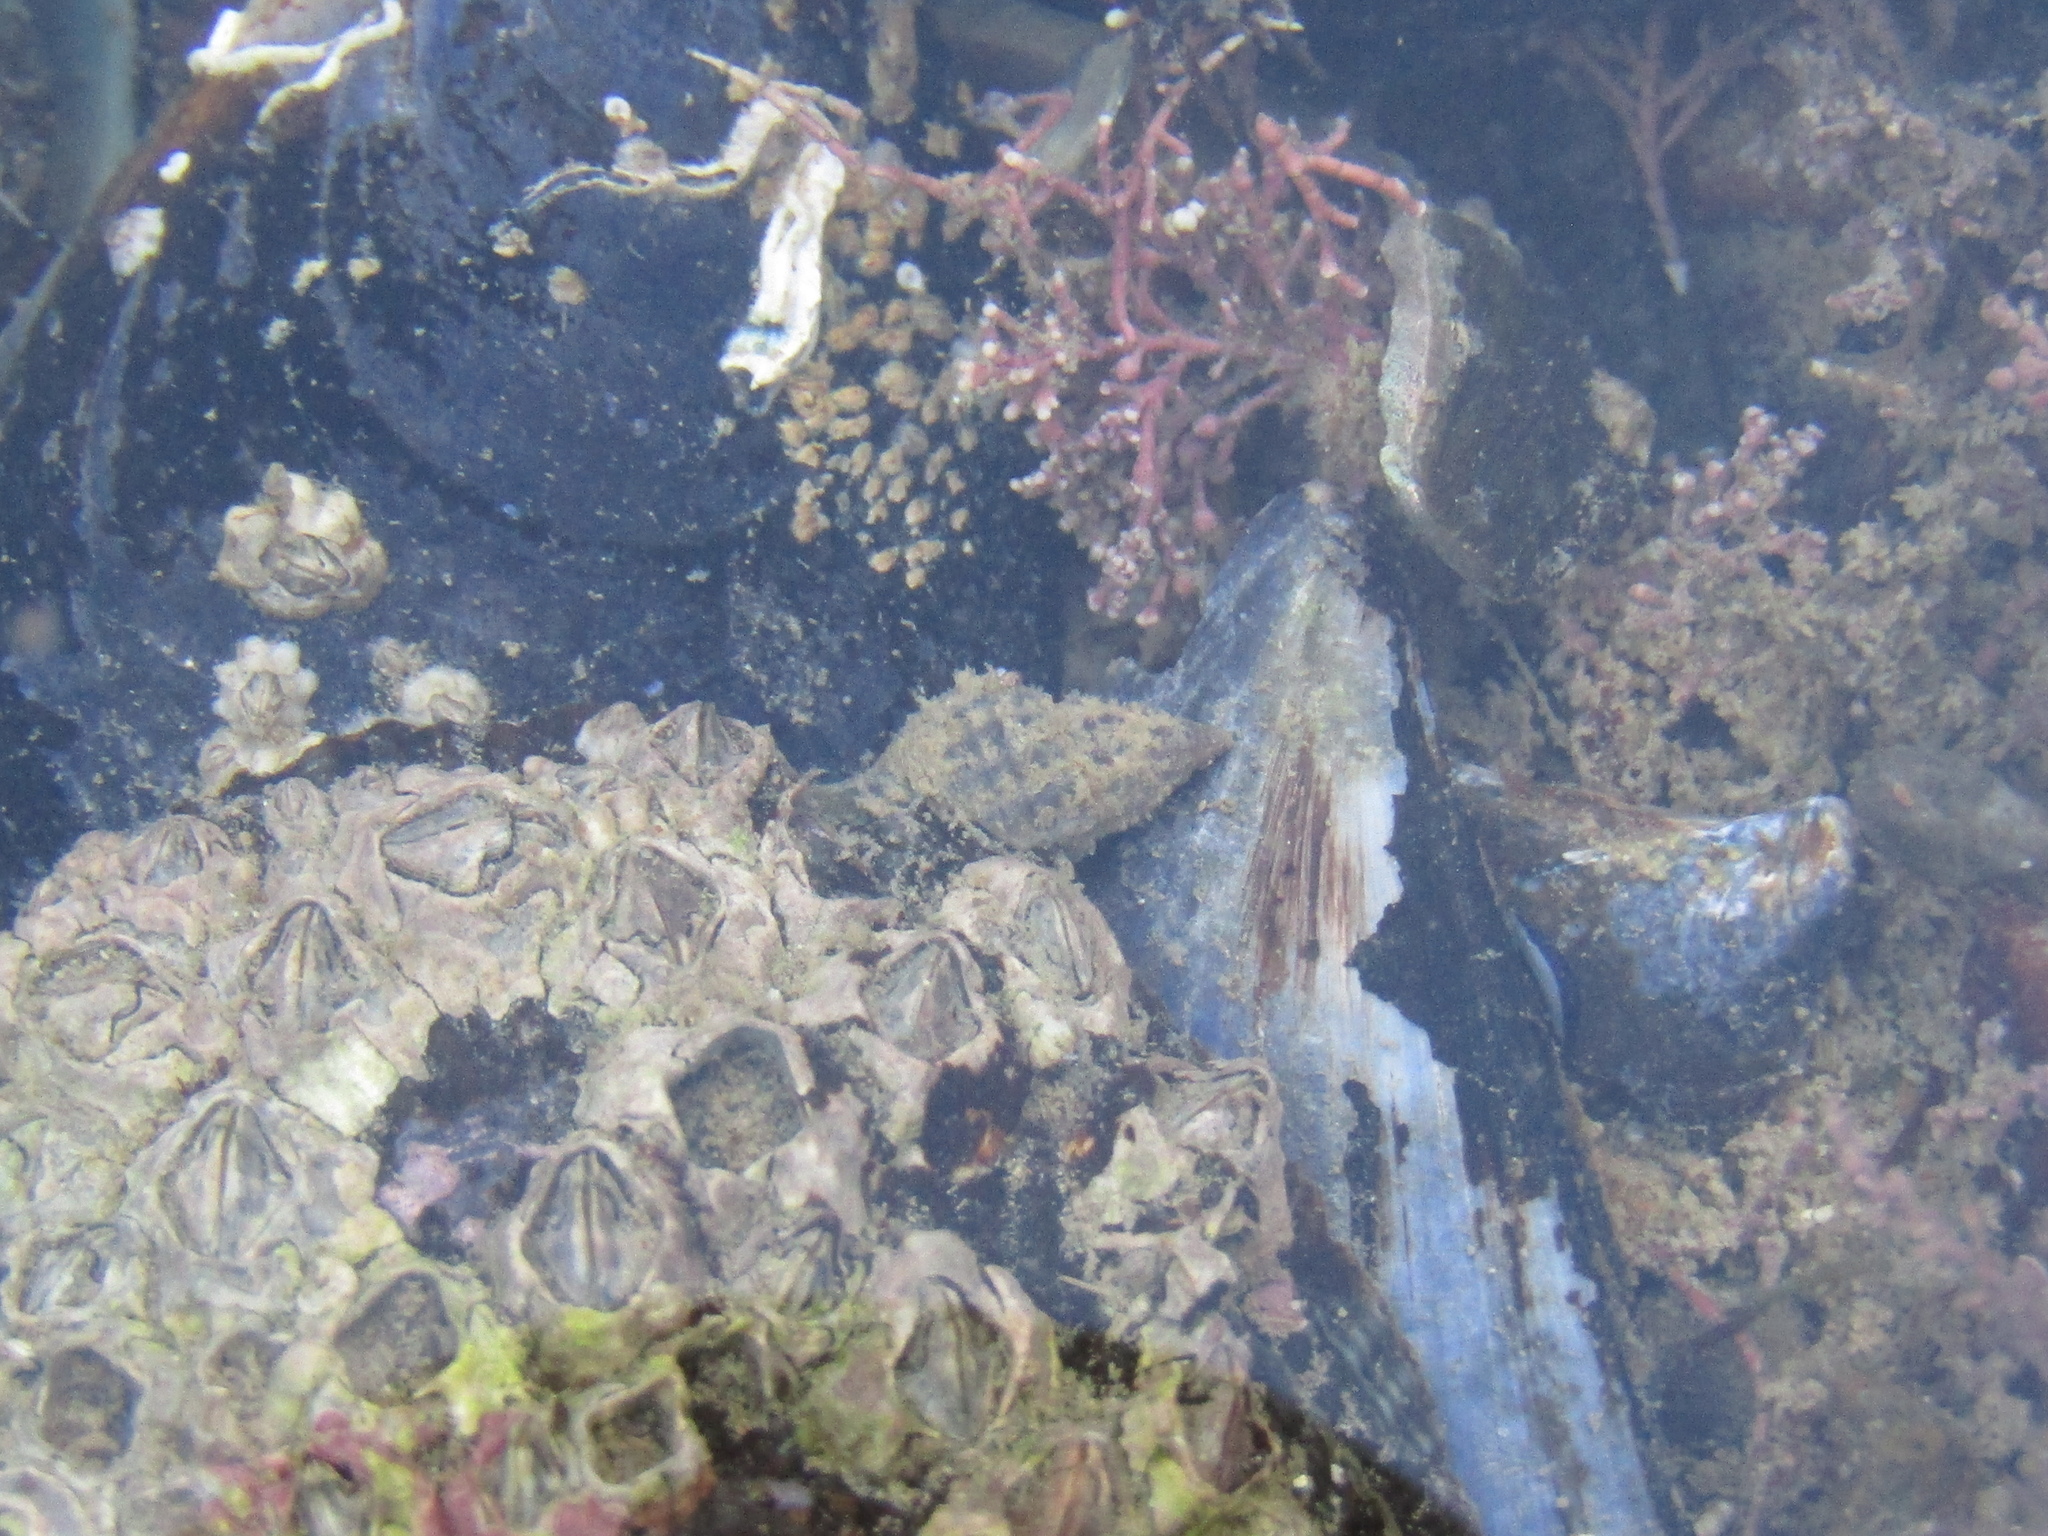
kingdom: Animalia
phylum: Mollusca
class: Gastropoda
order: Neogastropoda
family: Muricidae
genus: Xymenella
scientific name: Xymenella pusilla
